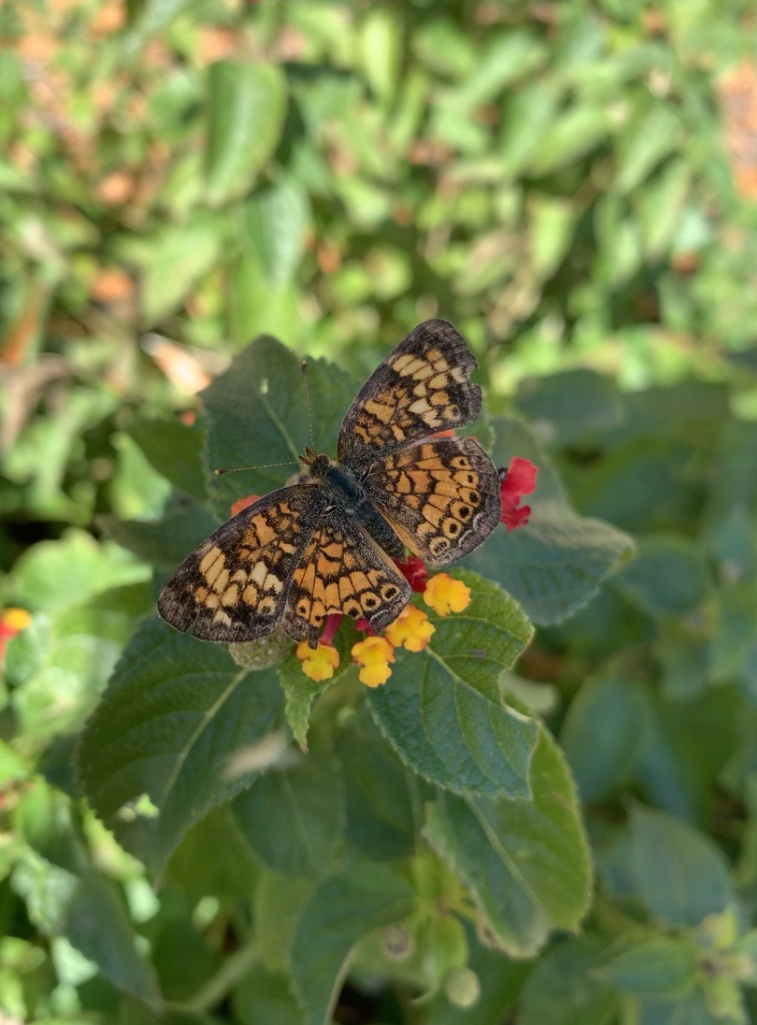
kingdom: Animalia
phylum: Arthropoda
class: Insecta
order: Lepidoptera
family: Nymphalidae
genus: Phyciodes
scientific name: Phyciodes tharos
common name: Pearl crescent
